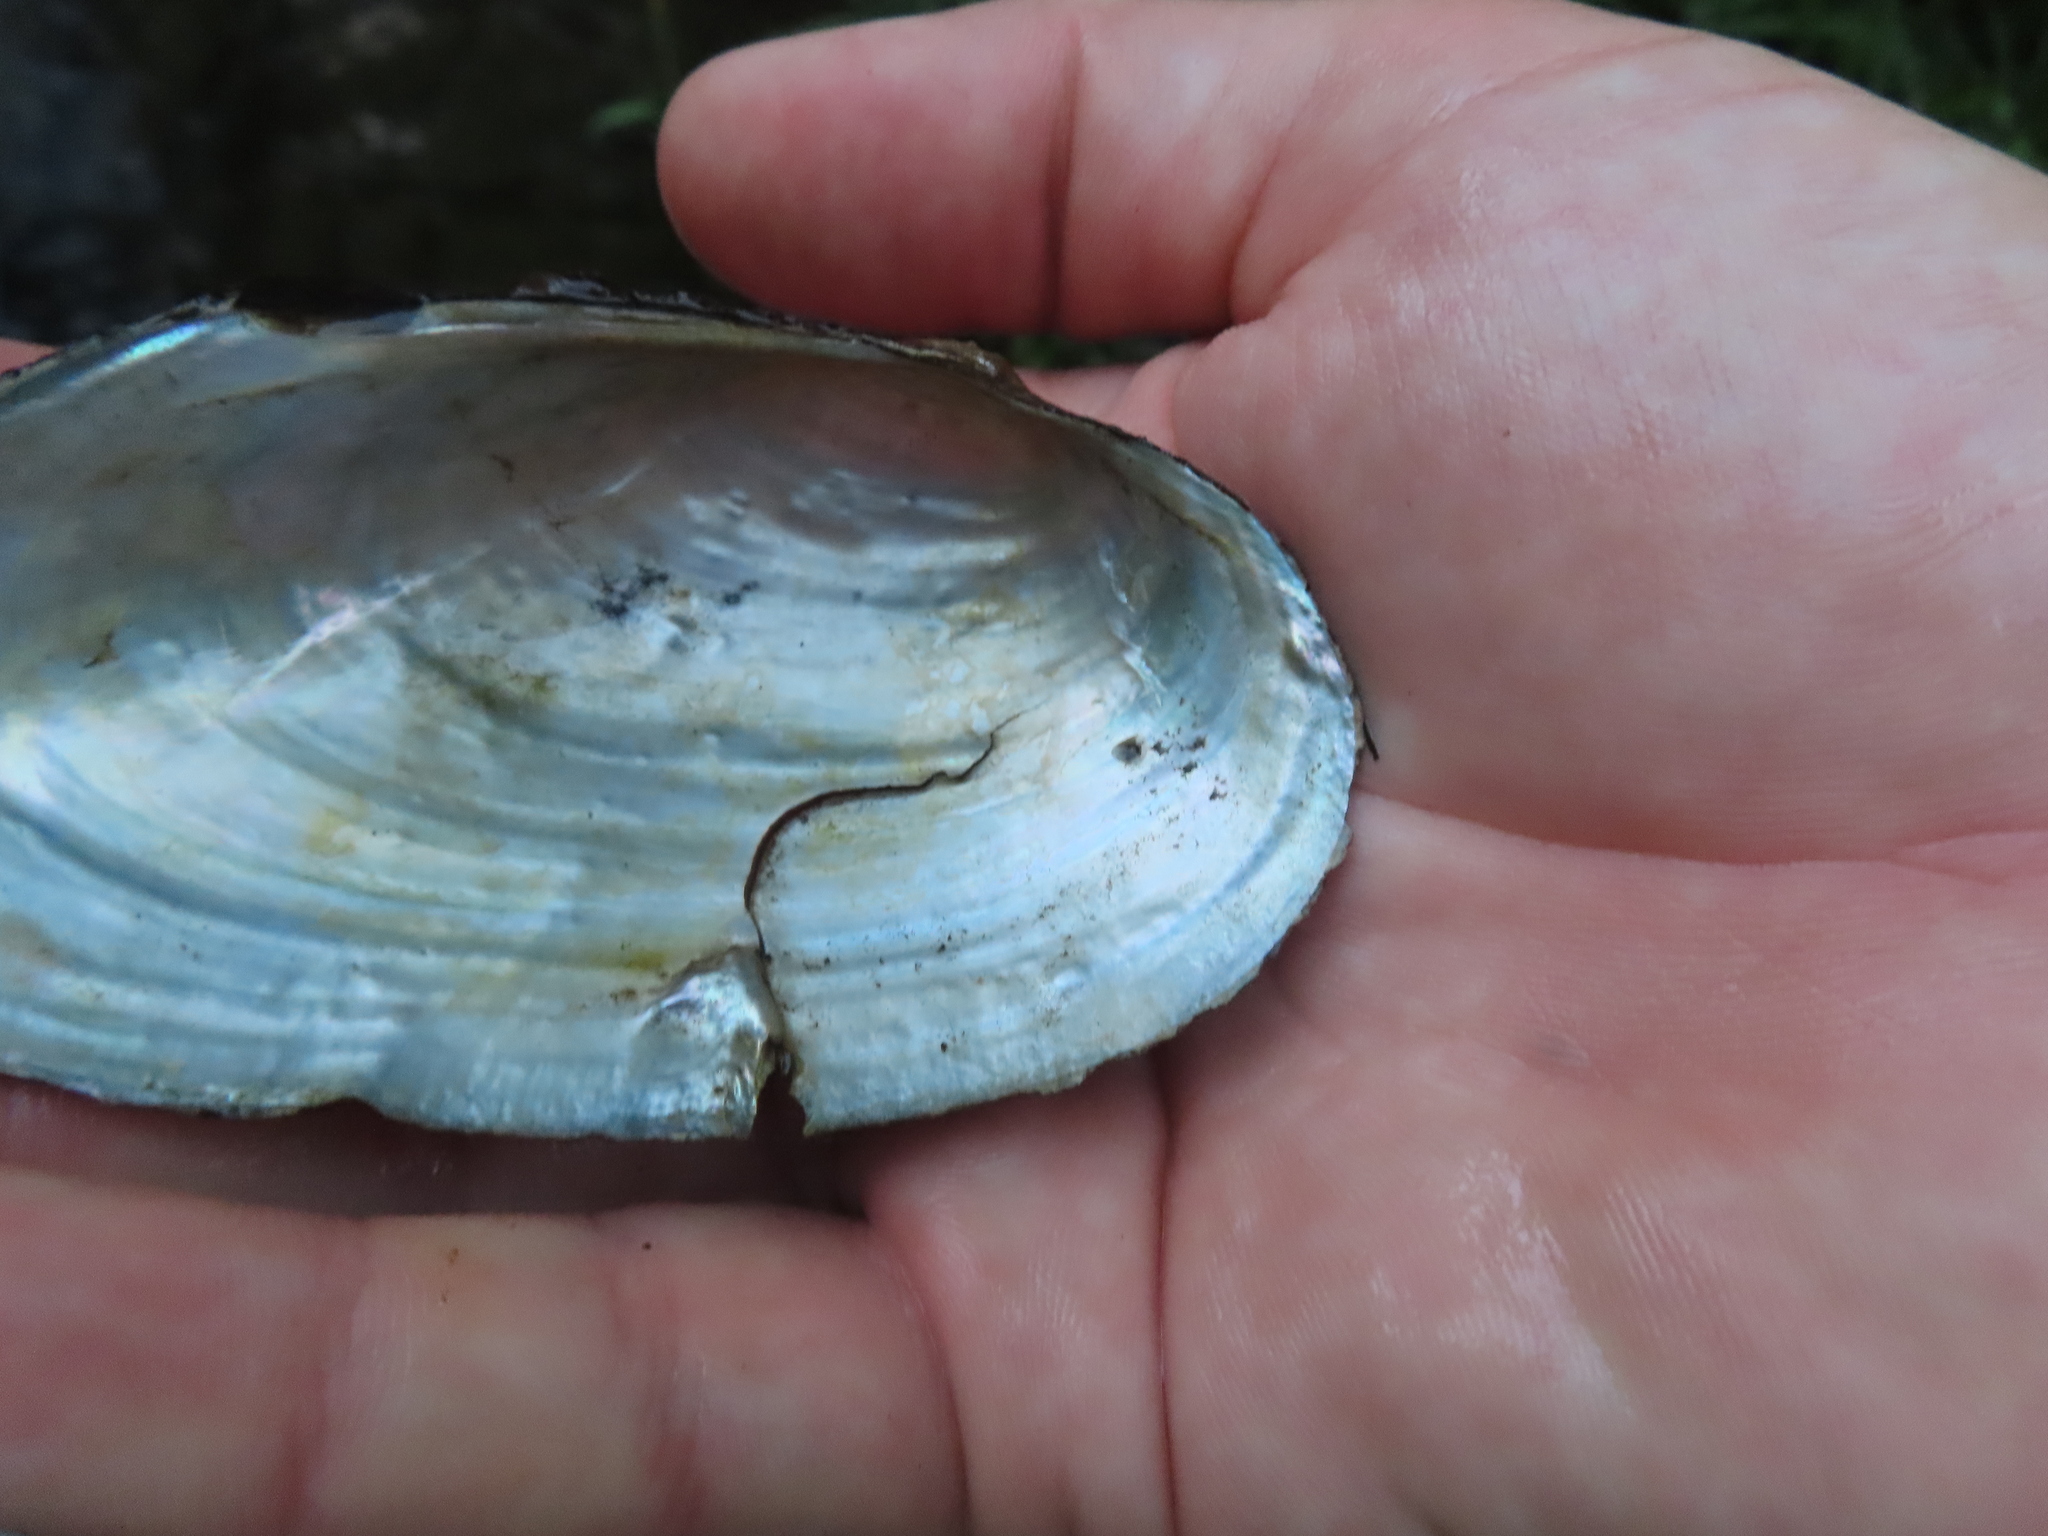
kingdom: Animalia
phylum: Mollusca
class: Bivalvia
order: Unionida
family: Unionidae
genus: Pyganodon
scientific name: Pyganodon grandis
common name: Giant floater
